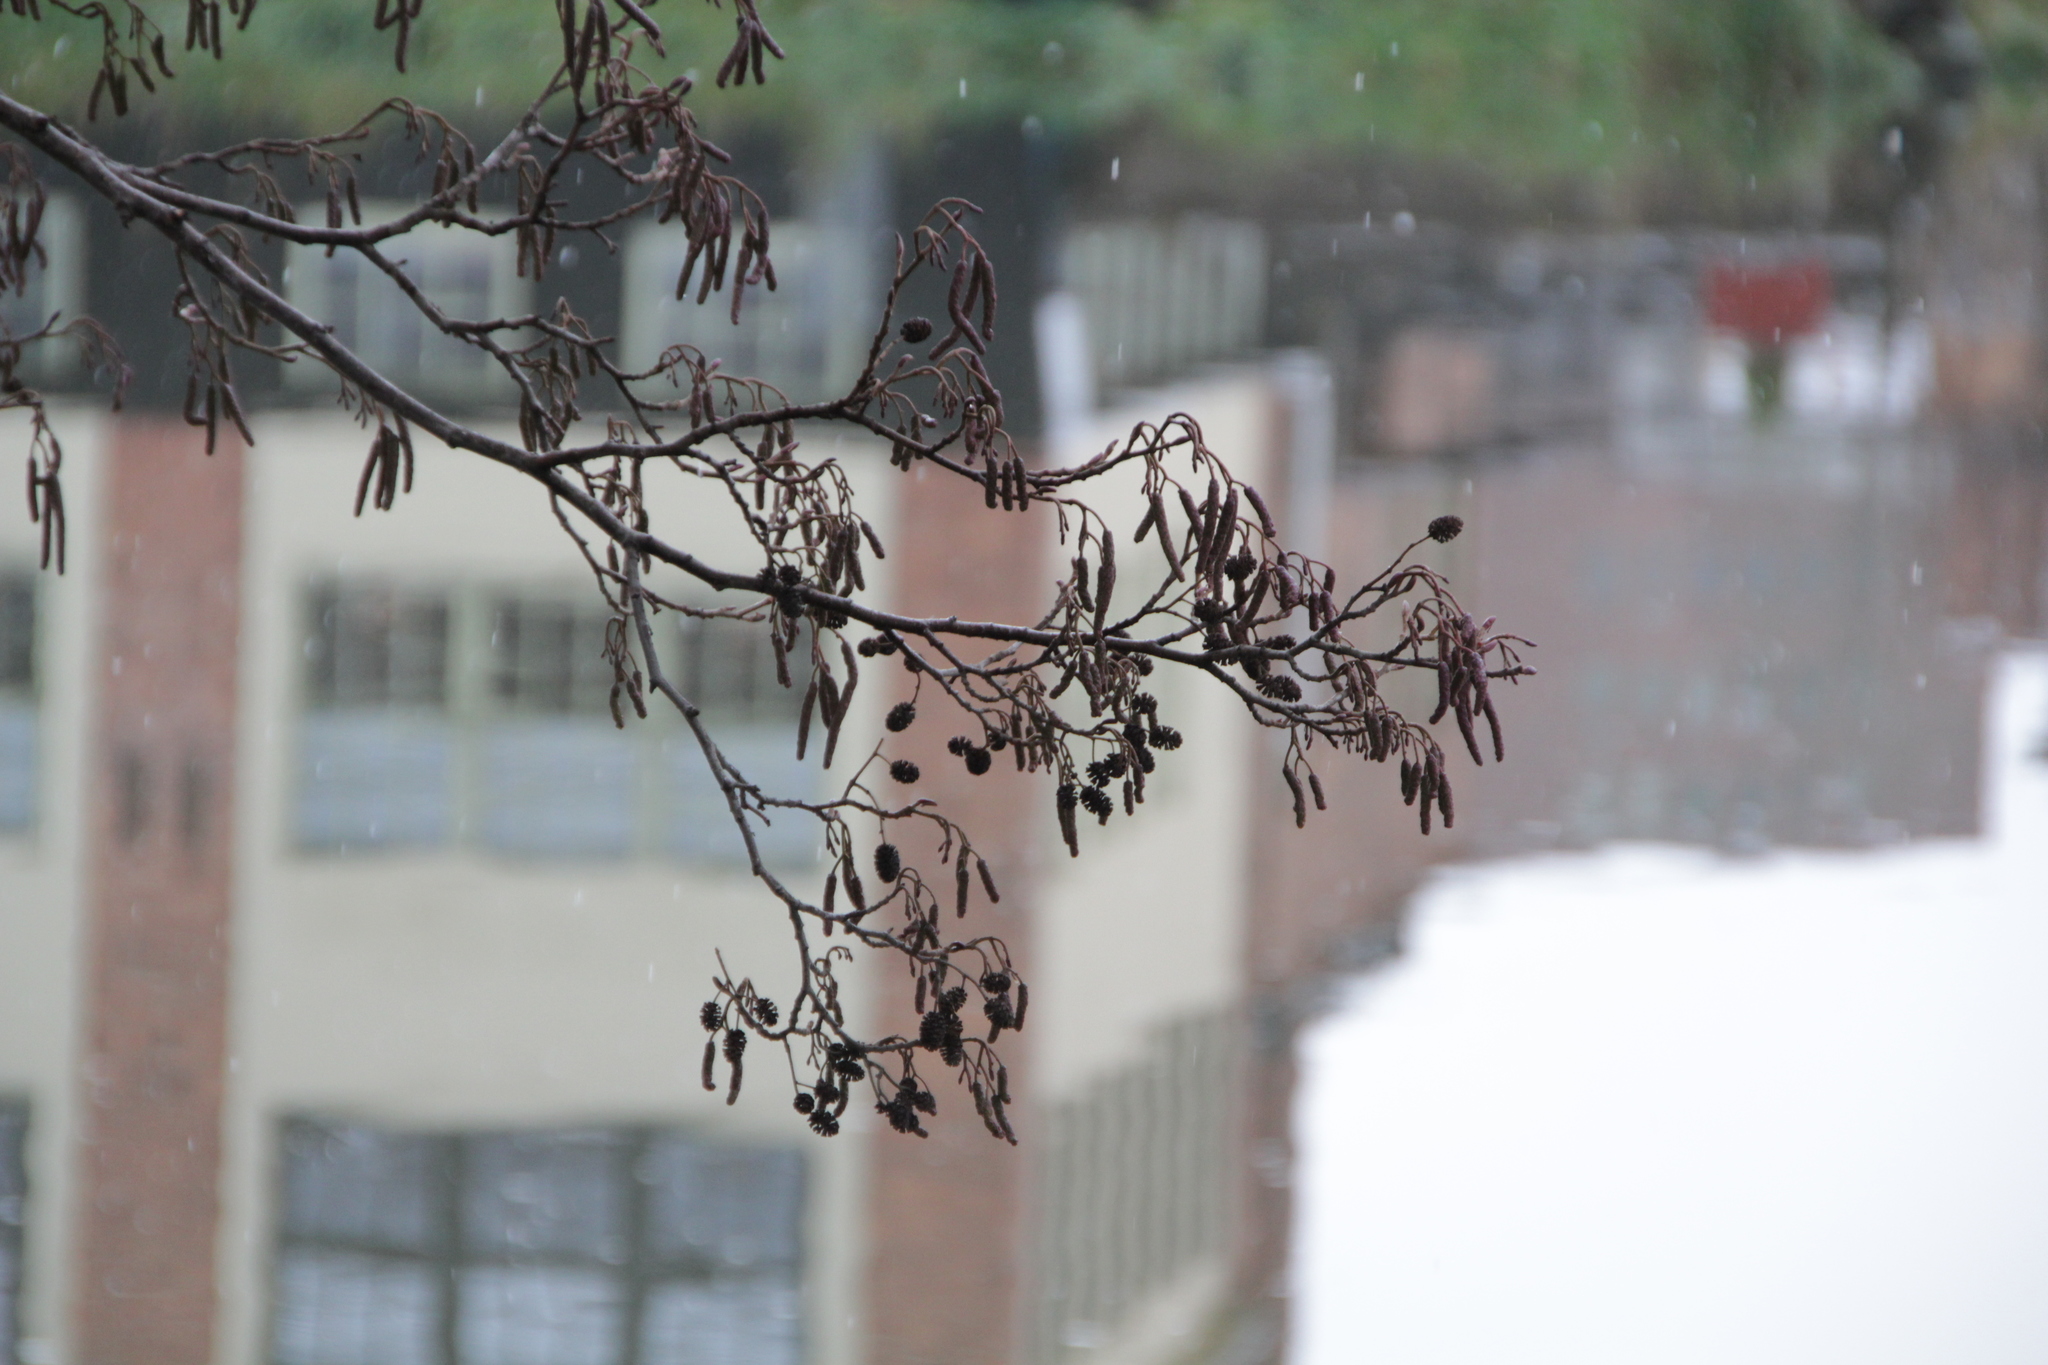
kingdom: Plantae
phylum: Tracheophyta
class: Magnoliopsida
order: Fagales
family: Betulaceae
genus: Alnus
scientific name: Alnus glutinosa
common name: Black alder
